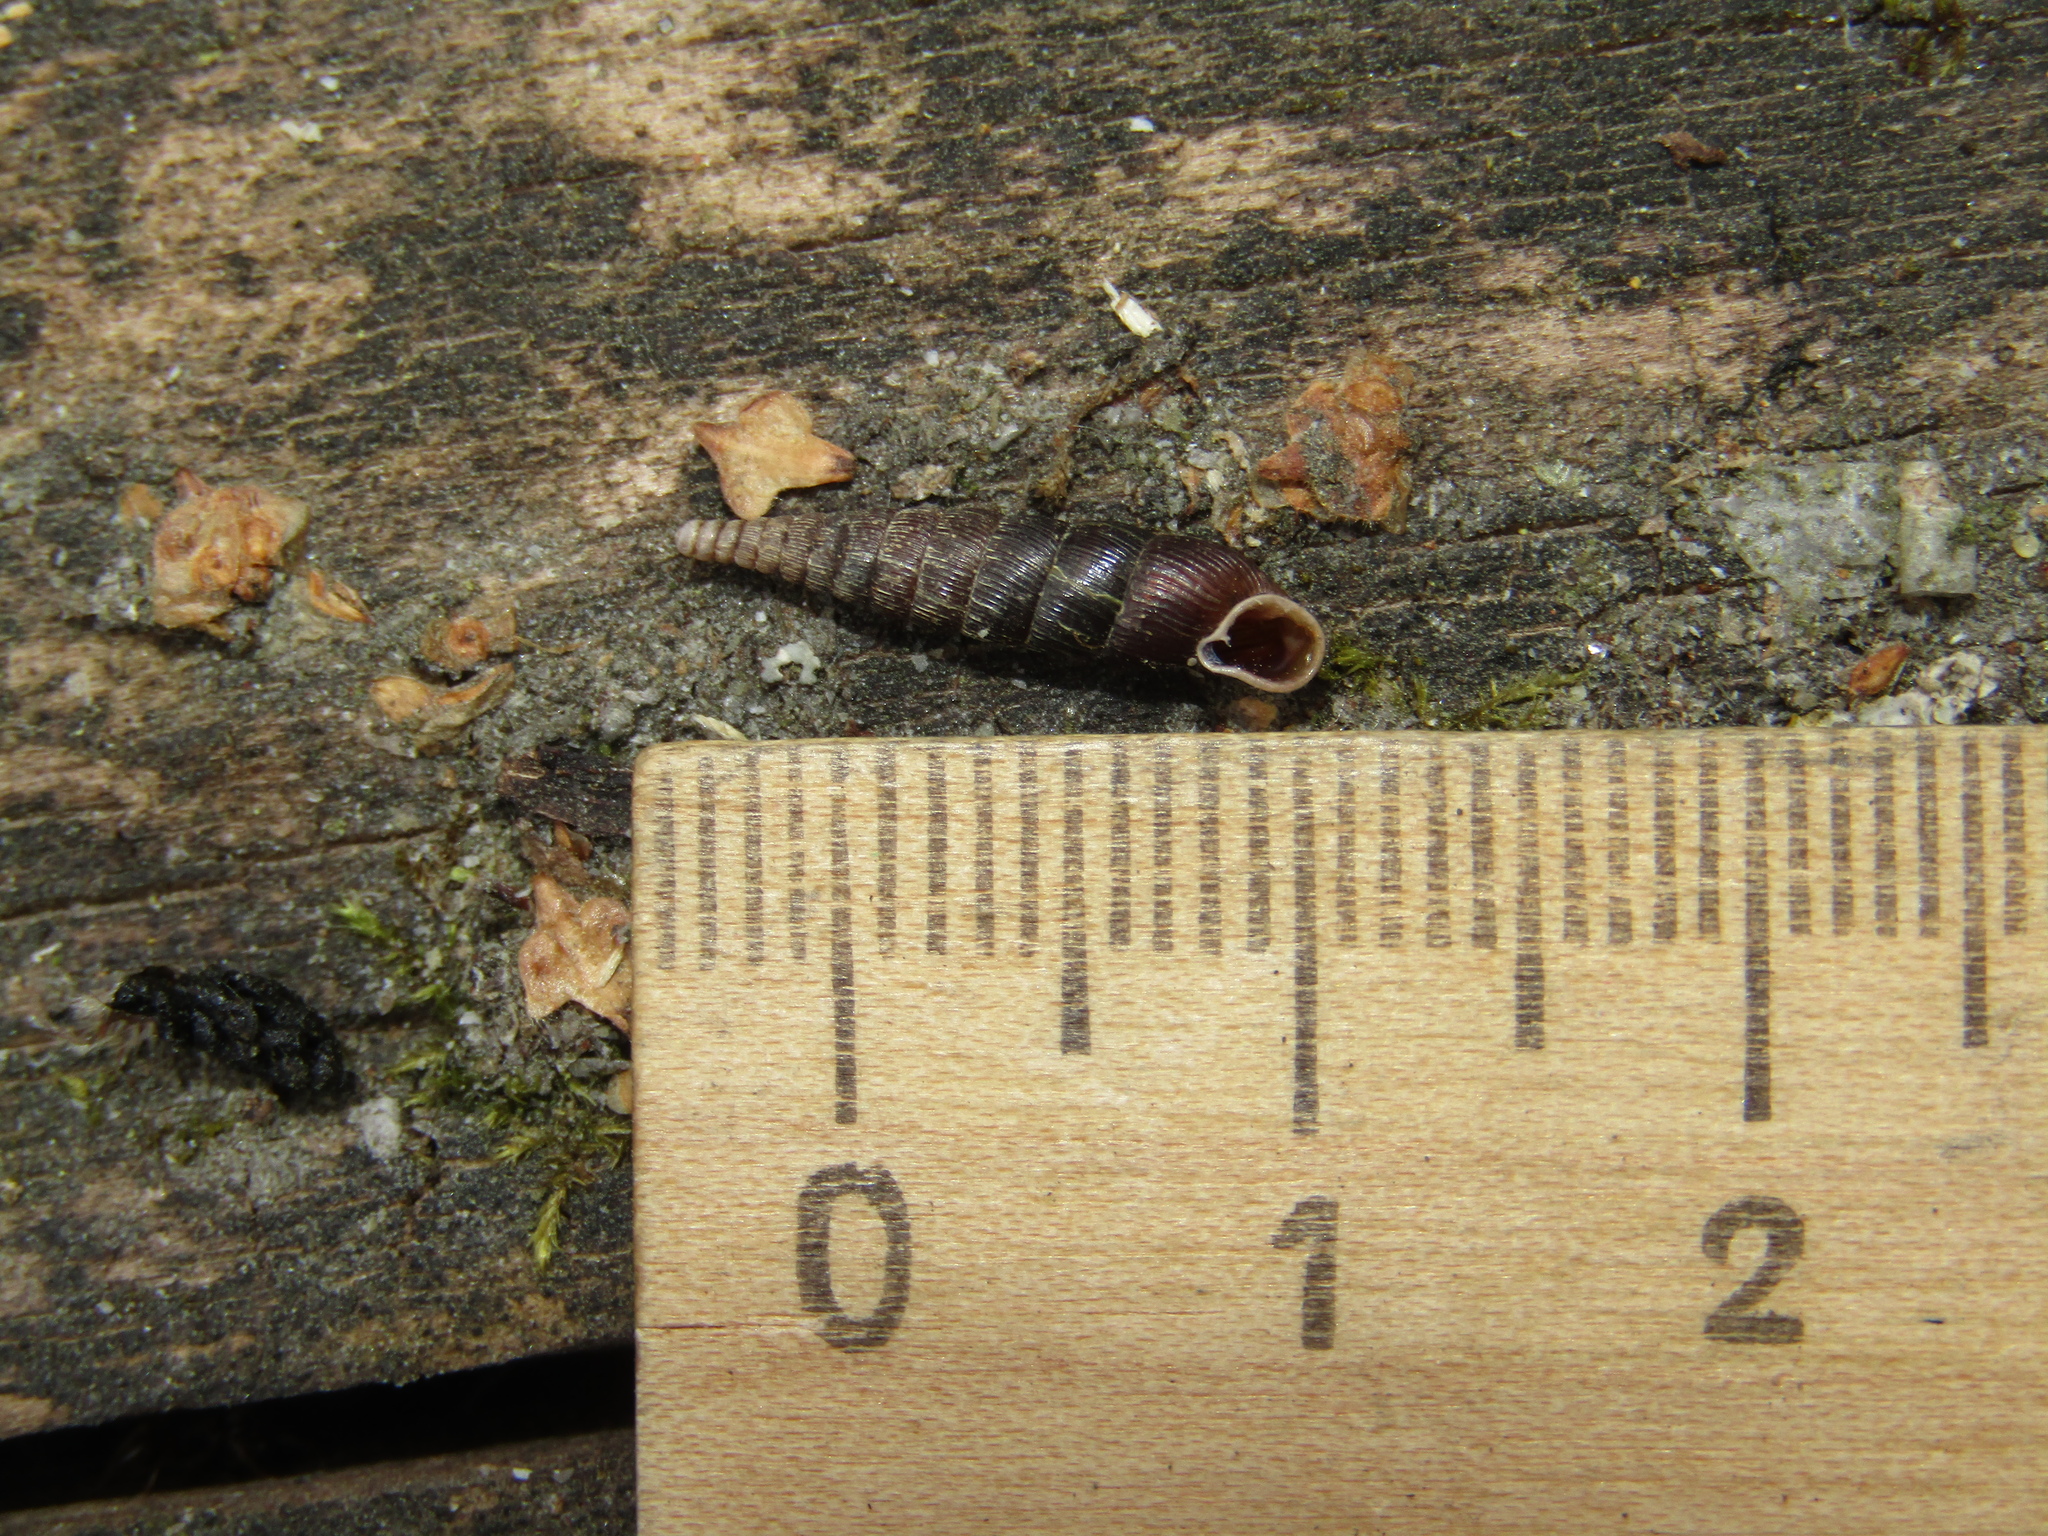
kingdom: Animalia
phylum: Mollusca
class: Gastropoda
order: Stylommatophora
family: Clausiliidae
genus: Clausilia
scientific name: Clausilia pumila
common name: Clublike door snail
